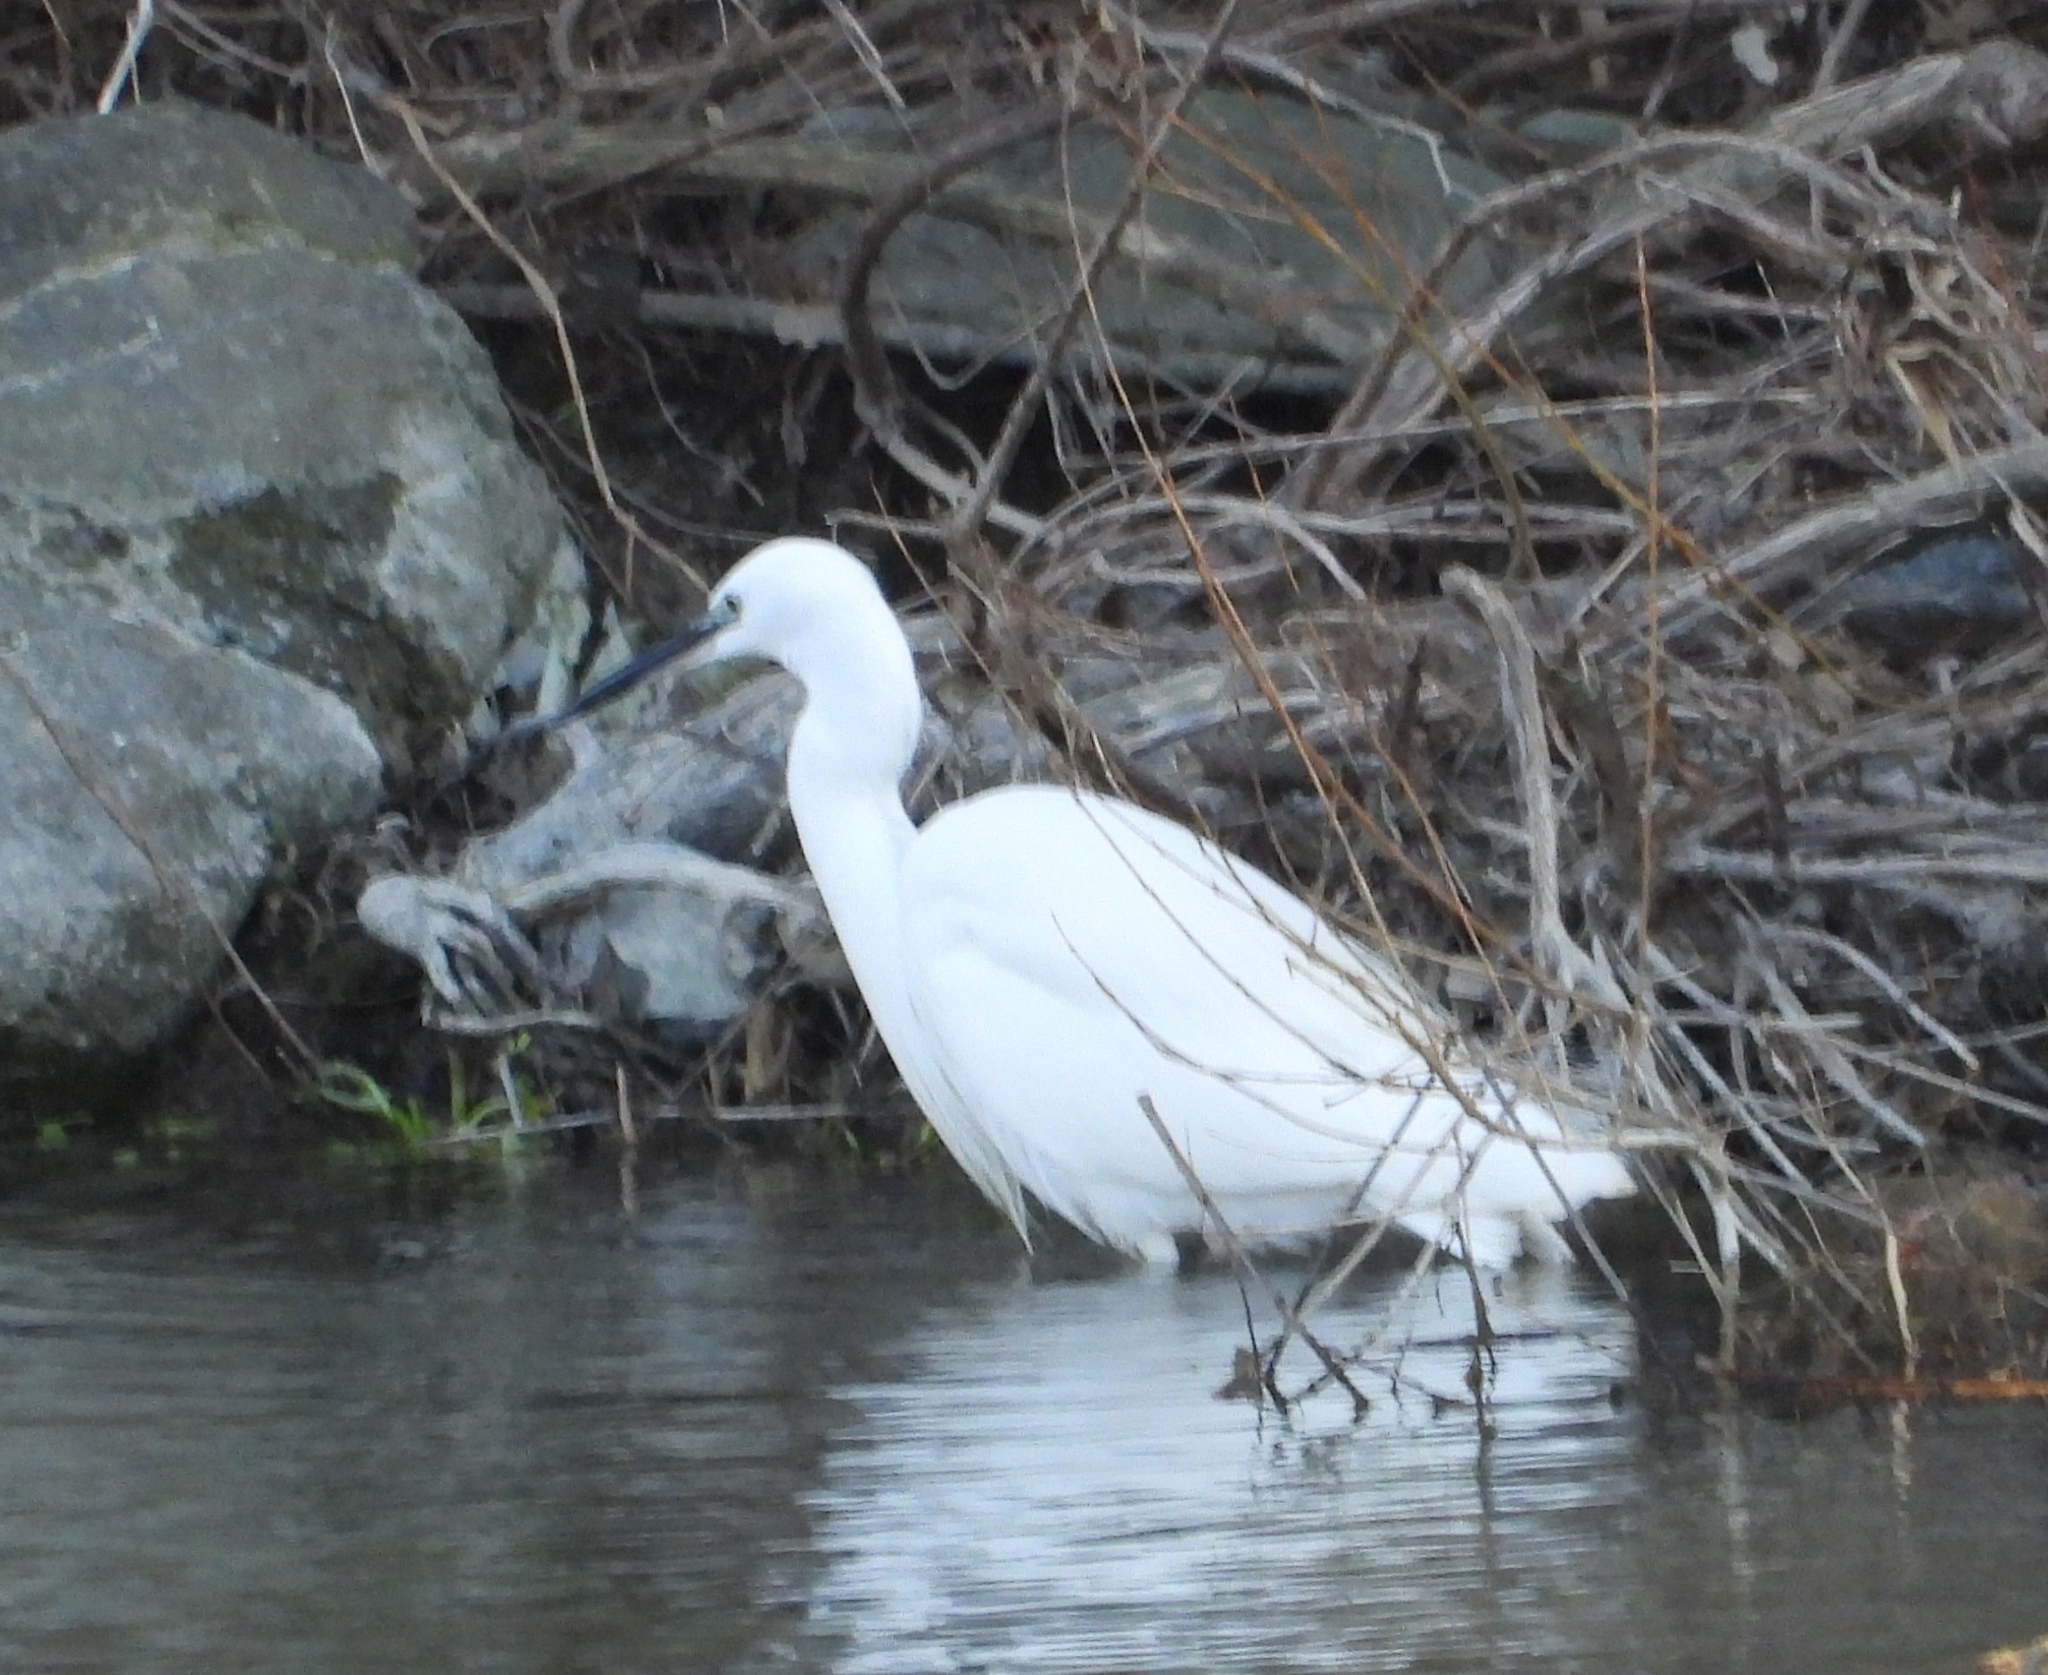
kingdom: Animalia
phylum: Chordata
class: Aves
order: Pelecaniformes
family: Ardeidae
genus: Egretta
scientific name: Egretta garzetta
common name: Little egret
